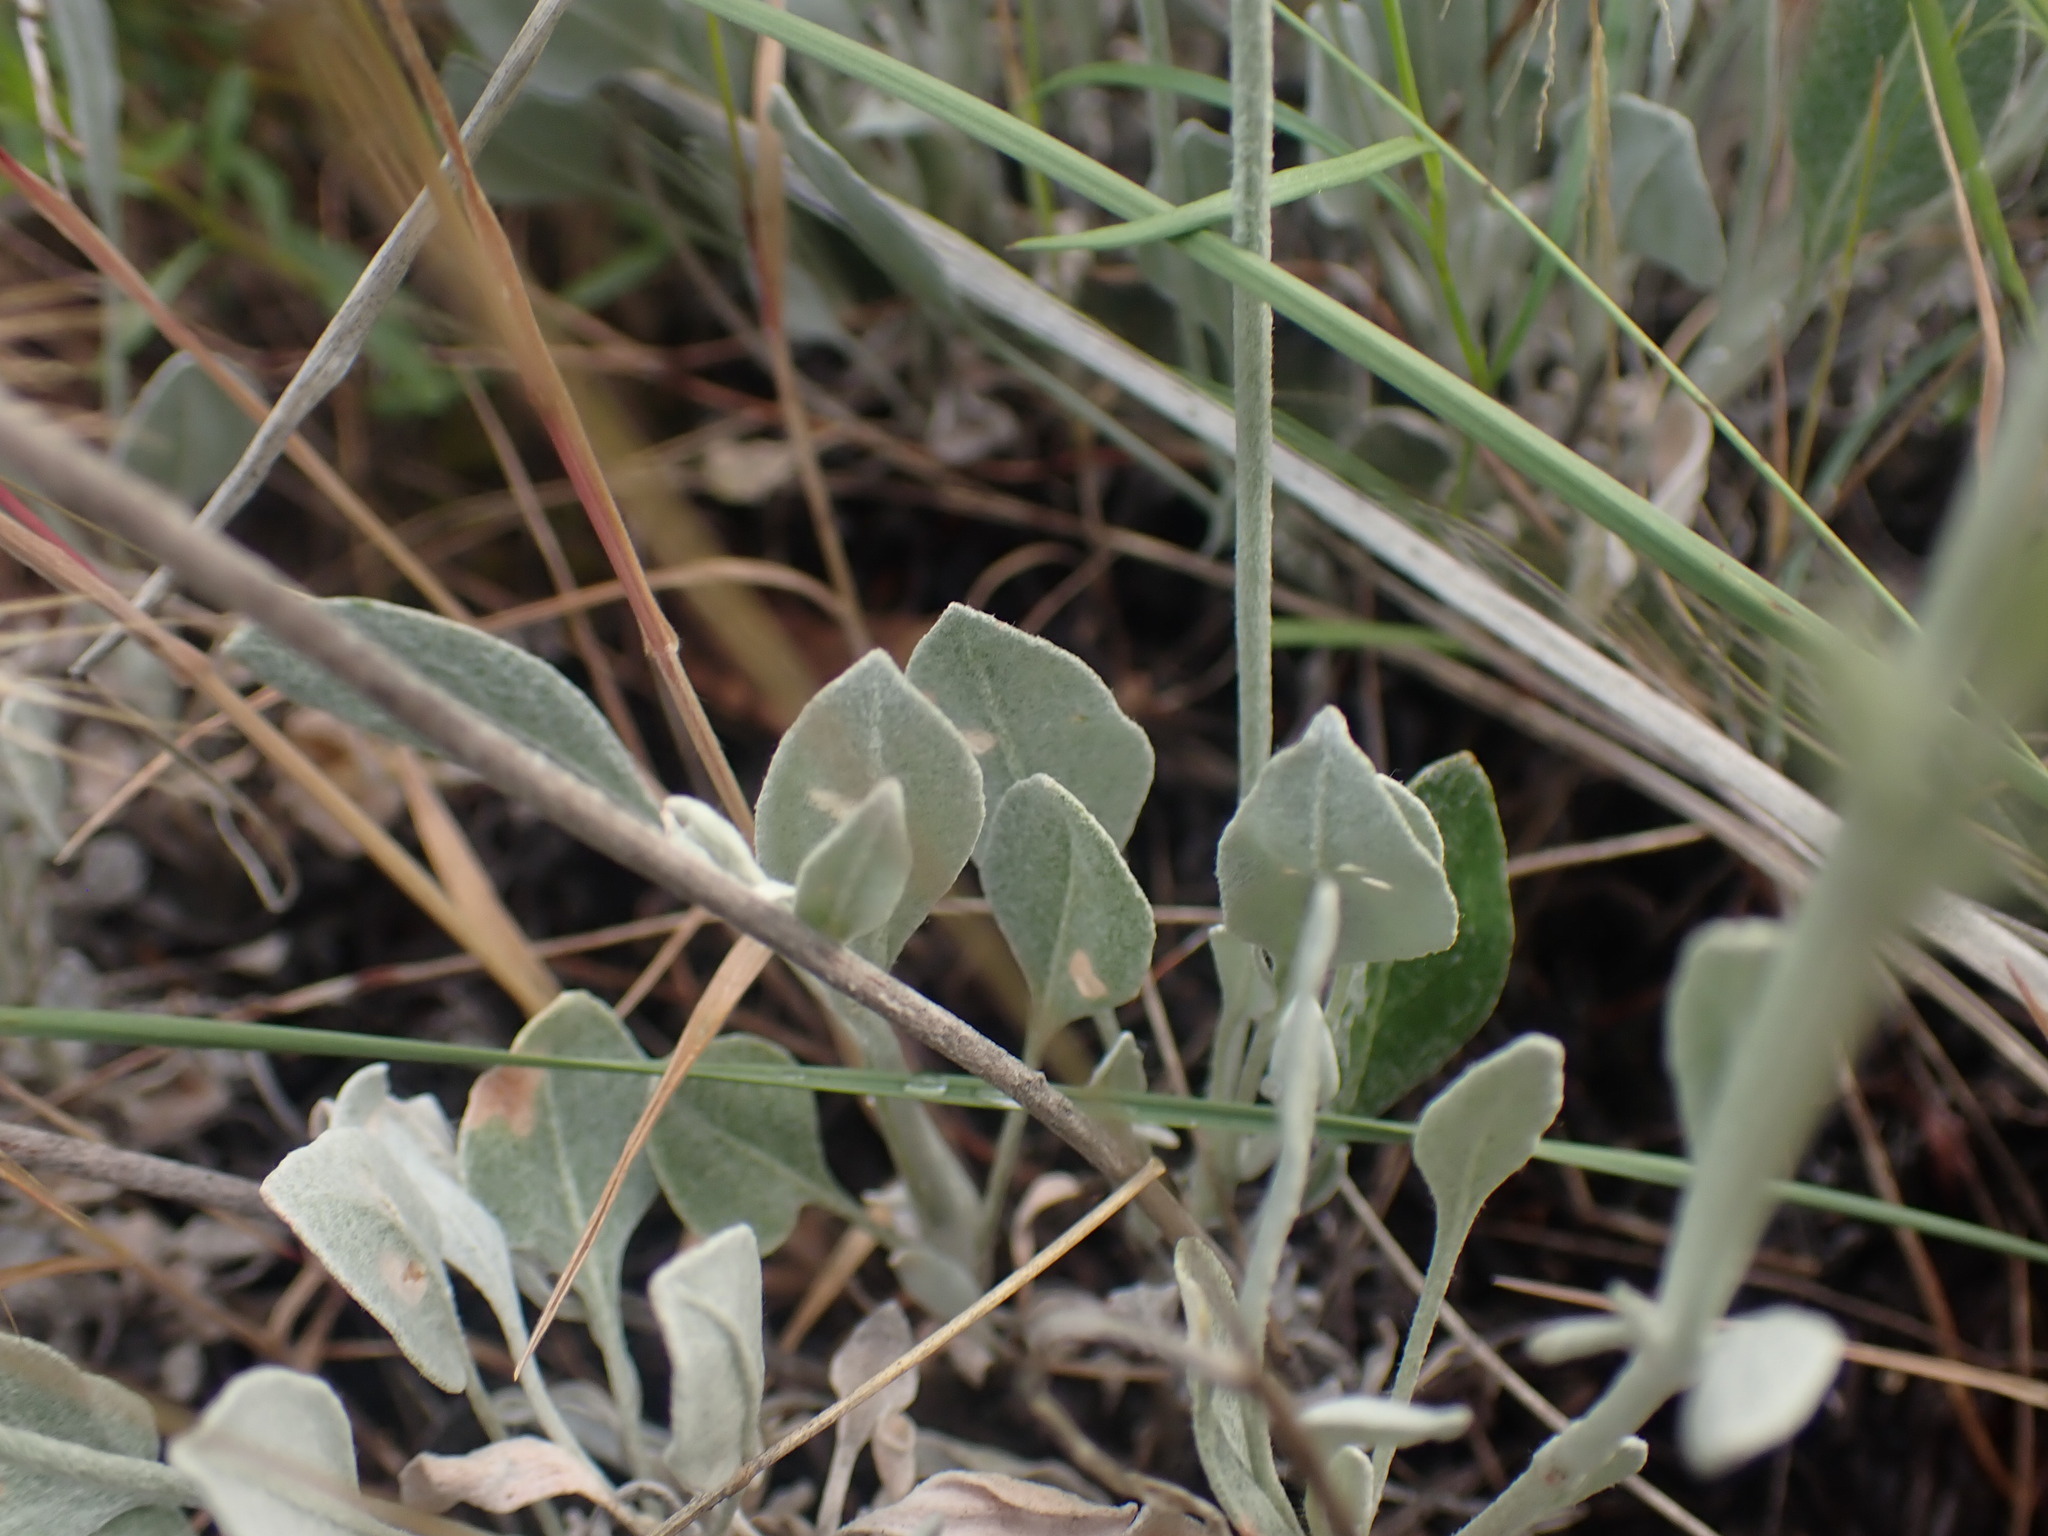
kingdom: Plantae
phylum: Tracheophyta
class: Magnoliopsida
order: Caryophyllales
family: Polygonaceae
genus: Eriogonum
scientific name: Eriogonum niveum
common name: Snow wild buckwheat
